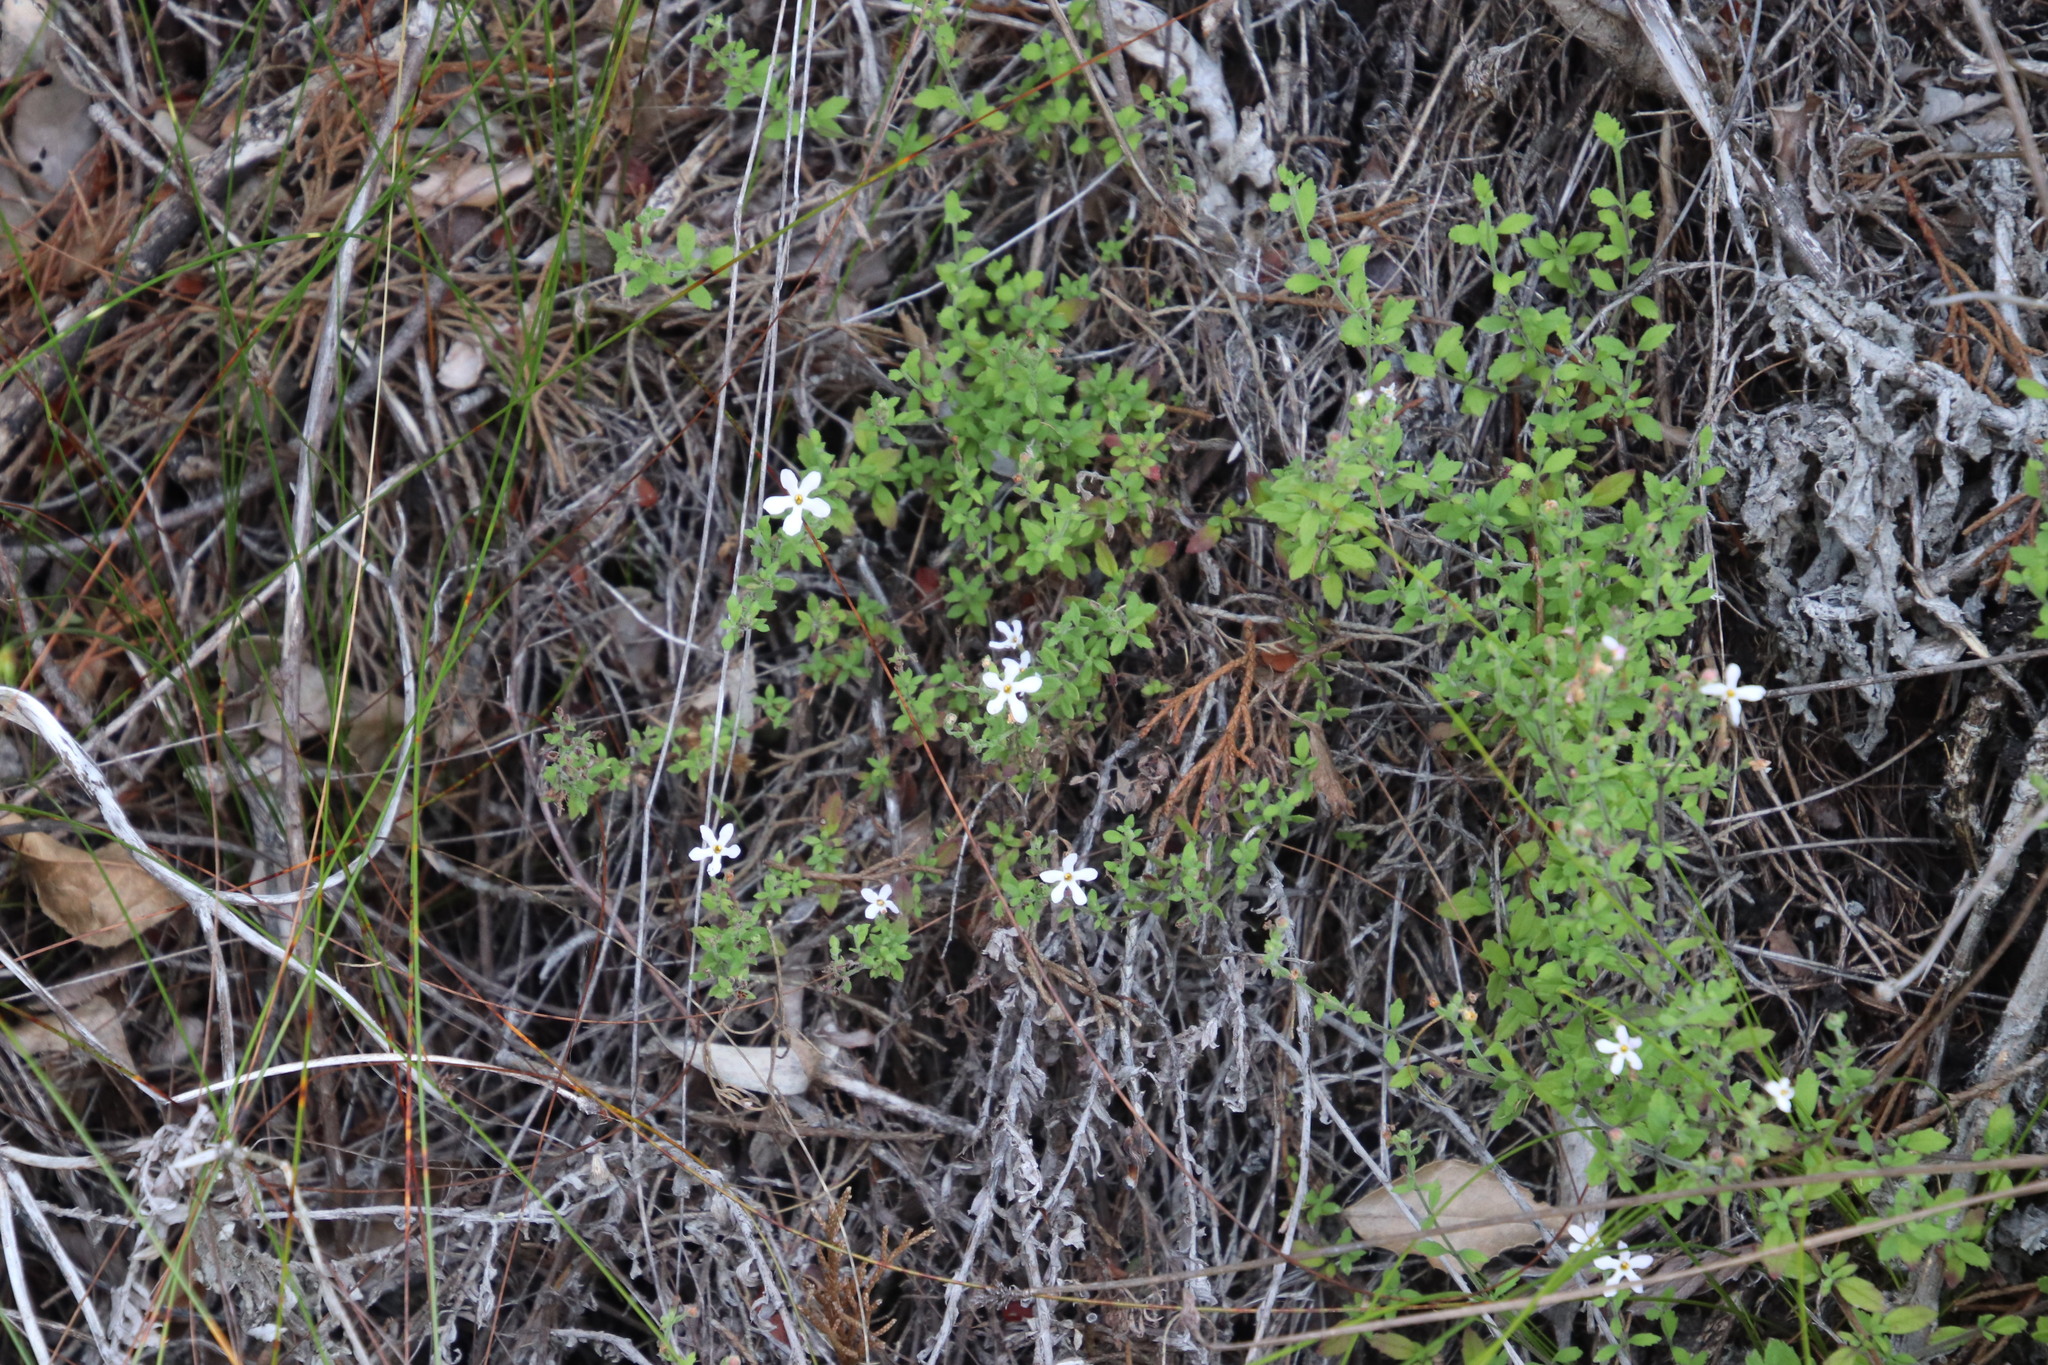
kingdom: Plantae
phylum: Tracheophyta
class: Magnoliopsida
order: Lamiales
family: Scrophulariaceae
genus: Chaenostoma
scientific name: Chaenostoma hispidum
